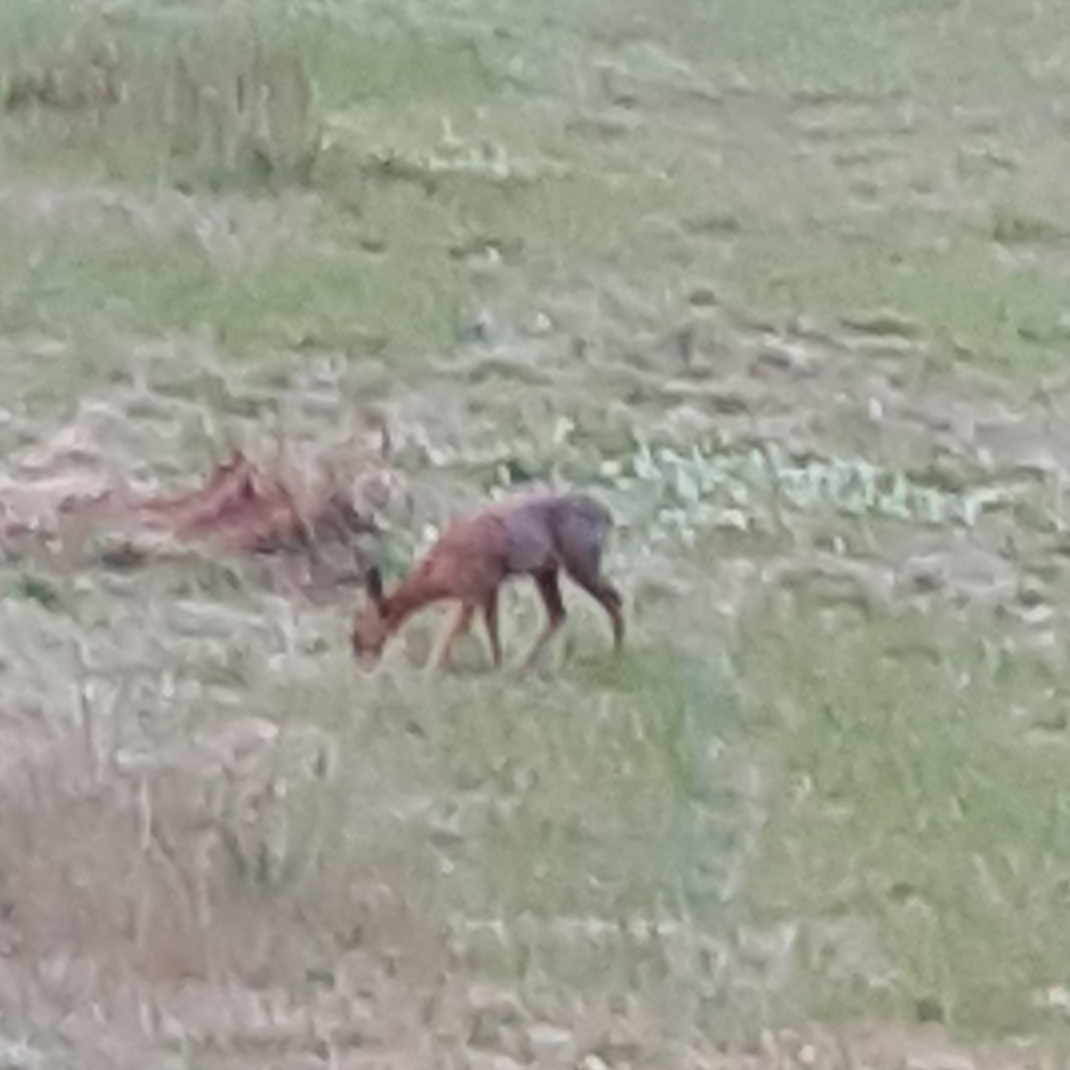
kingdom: Animalia
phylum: Chordata
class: Mammalia
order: Artiodactyla
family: Cervidae
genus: Capreolus
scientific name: Capreolus capreolus
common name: Western roe deer
